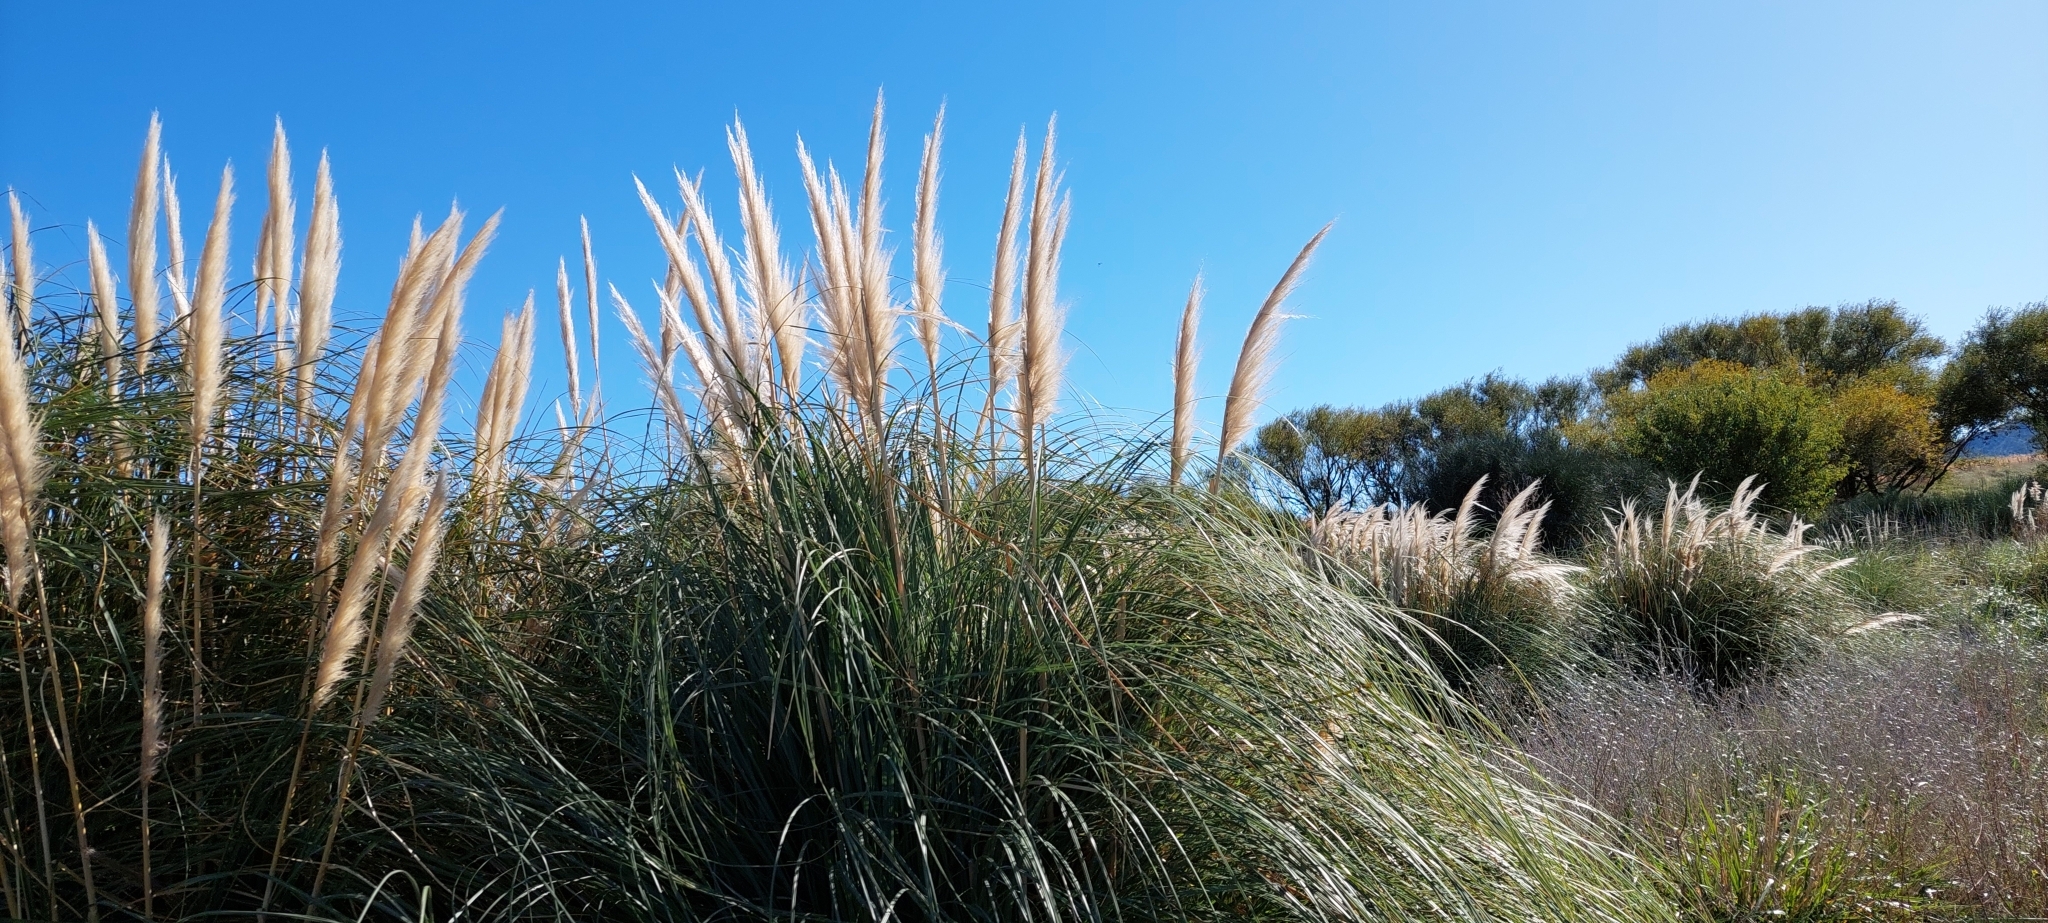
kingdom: Plantae
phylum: Tracheophyta
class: Liliopsida
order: Poales
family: Poaceae
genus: Cortaderia
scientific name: Cortaderia selloana
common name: Uruguayan pampas grass
